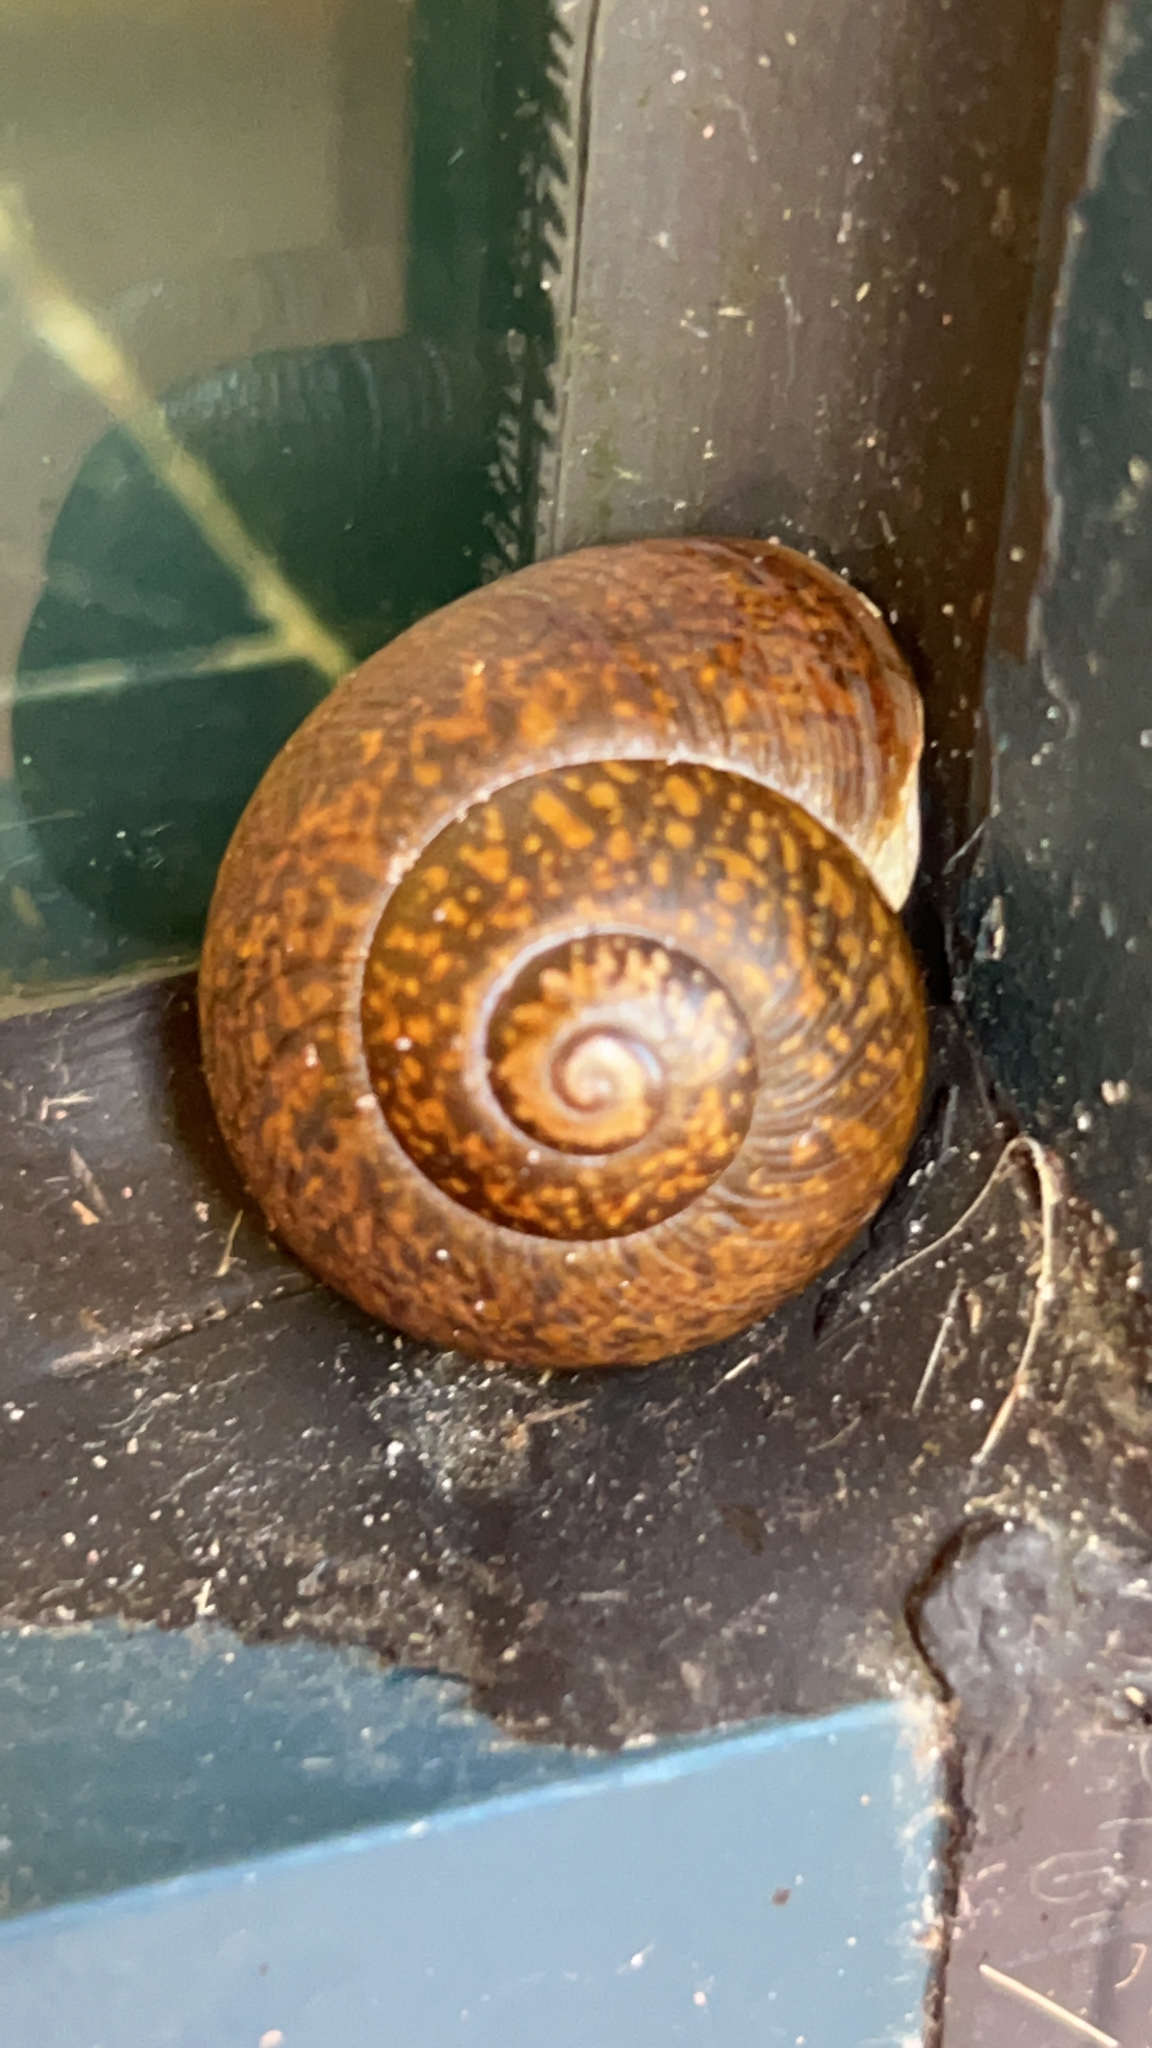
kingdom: Animalia
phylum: Mollusca
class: Gastropoda
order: Stylommatophora
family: Zachrysiidae
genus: Zachrysia
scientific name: Zachrysia provisoria
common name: Garden zachrysia
